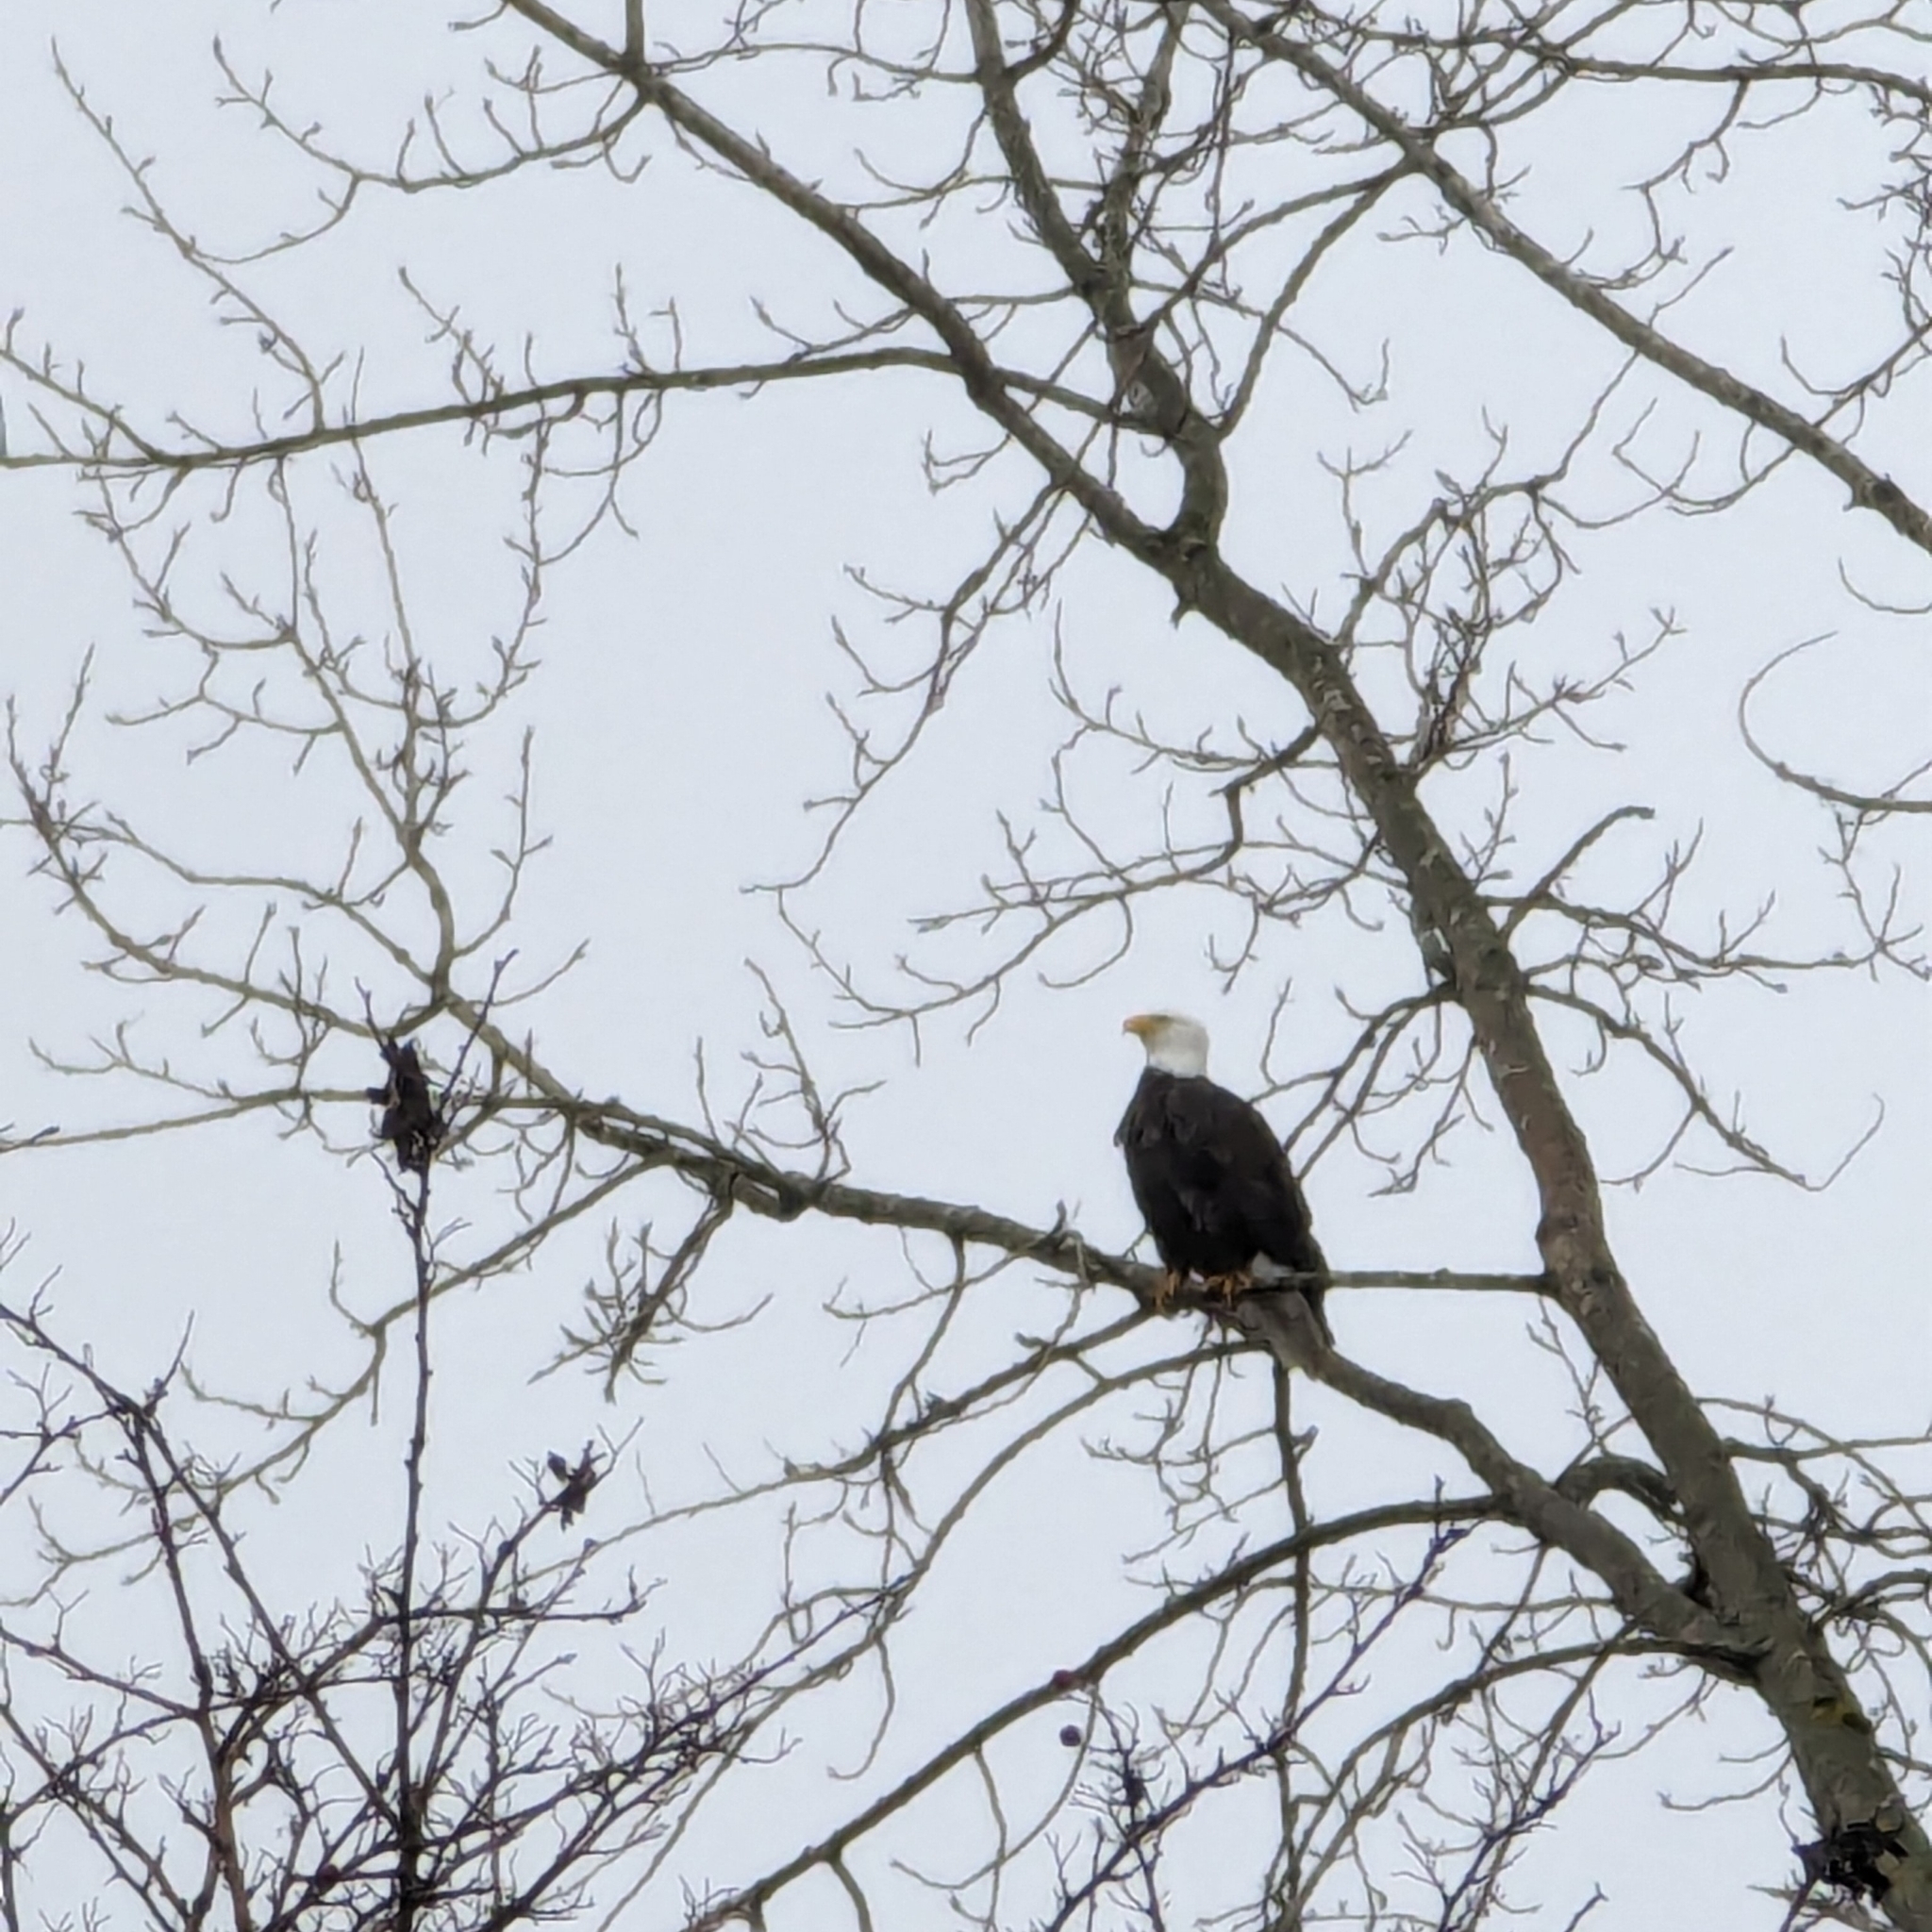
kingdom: Animalia
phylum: Chordata
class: Aves
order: Accipitriformes
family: Accipitridae
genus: Haliaeetus
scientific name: Haliaeetus leucocephalus
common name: Bald eagle
